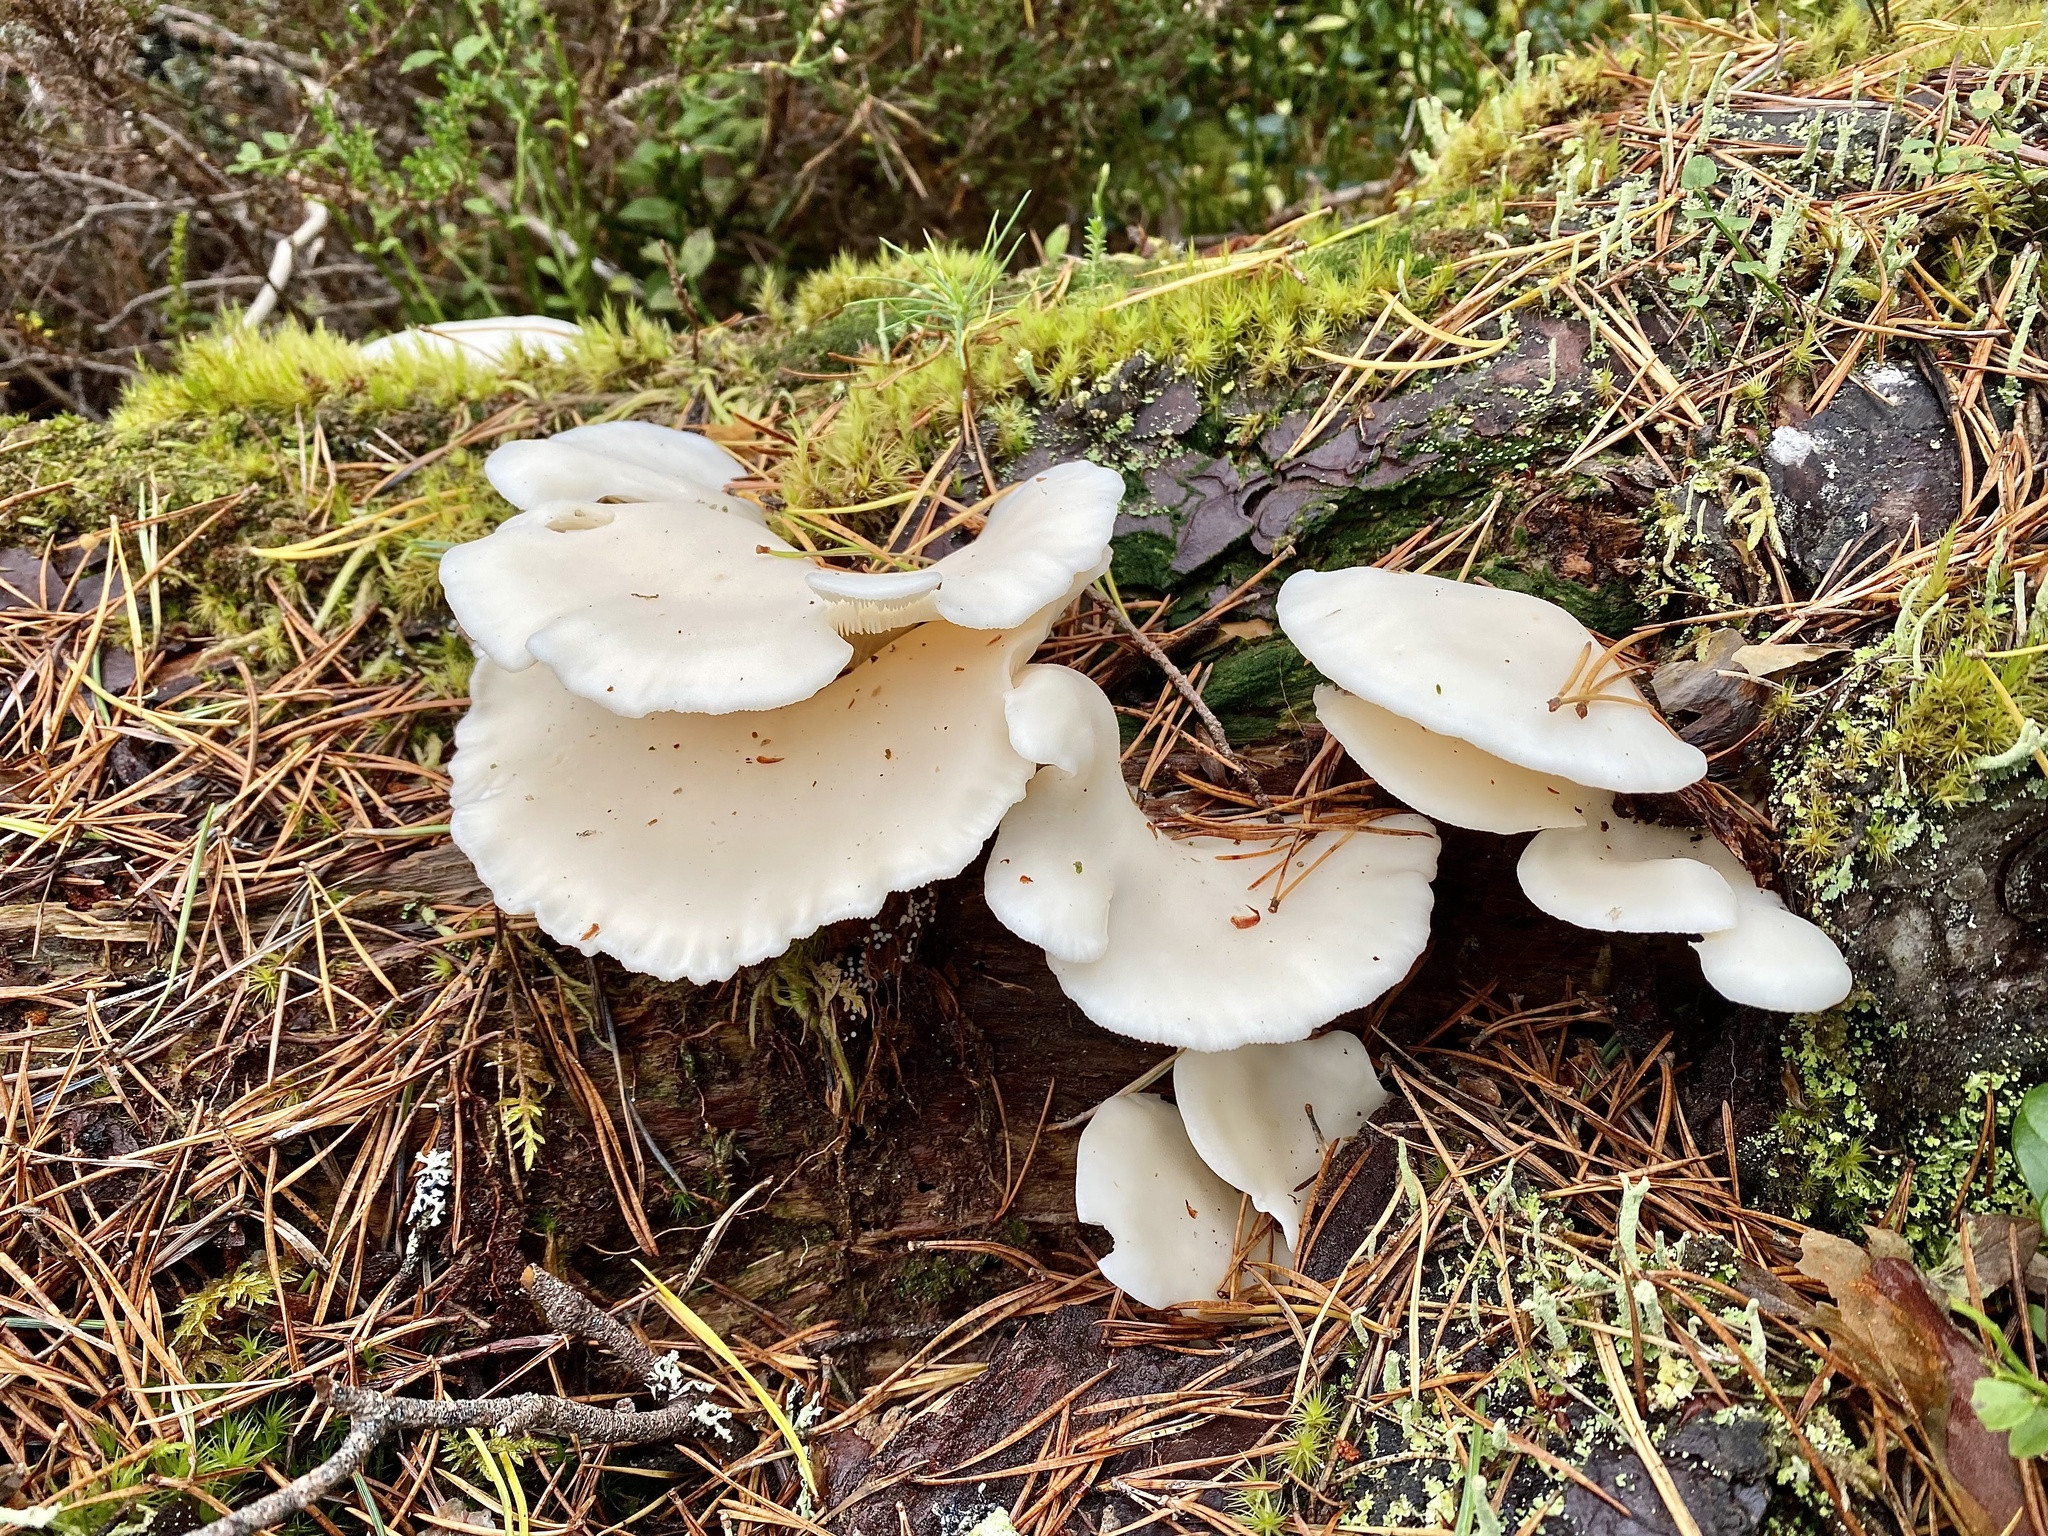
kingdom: Fungi
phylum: Basidiomycota
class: Agaricomycetes
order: Agaricales
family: Marasmiaceae
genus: Pleurocybella
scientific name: Pleurocybella porrigens
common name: Angel's wings
